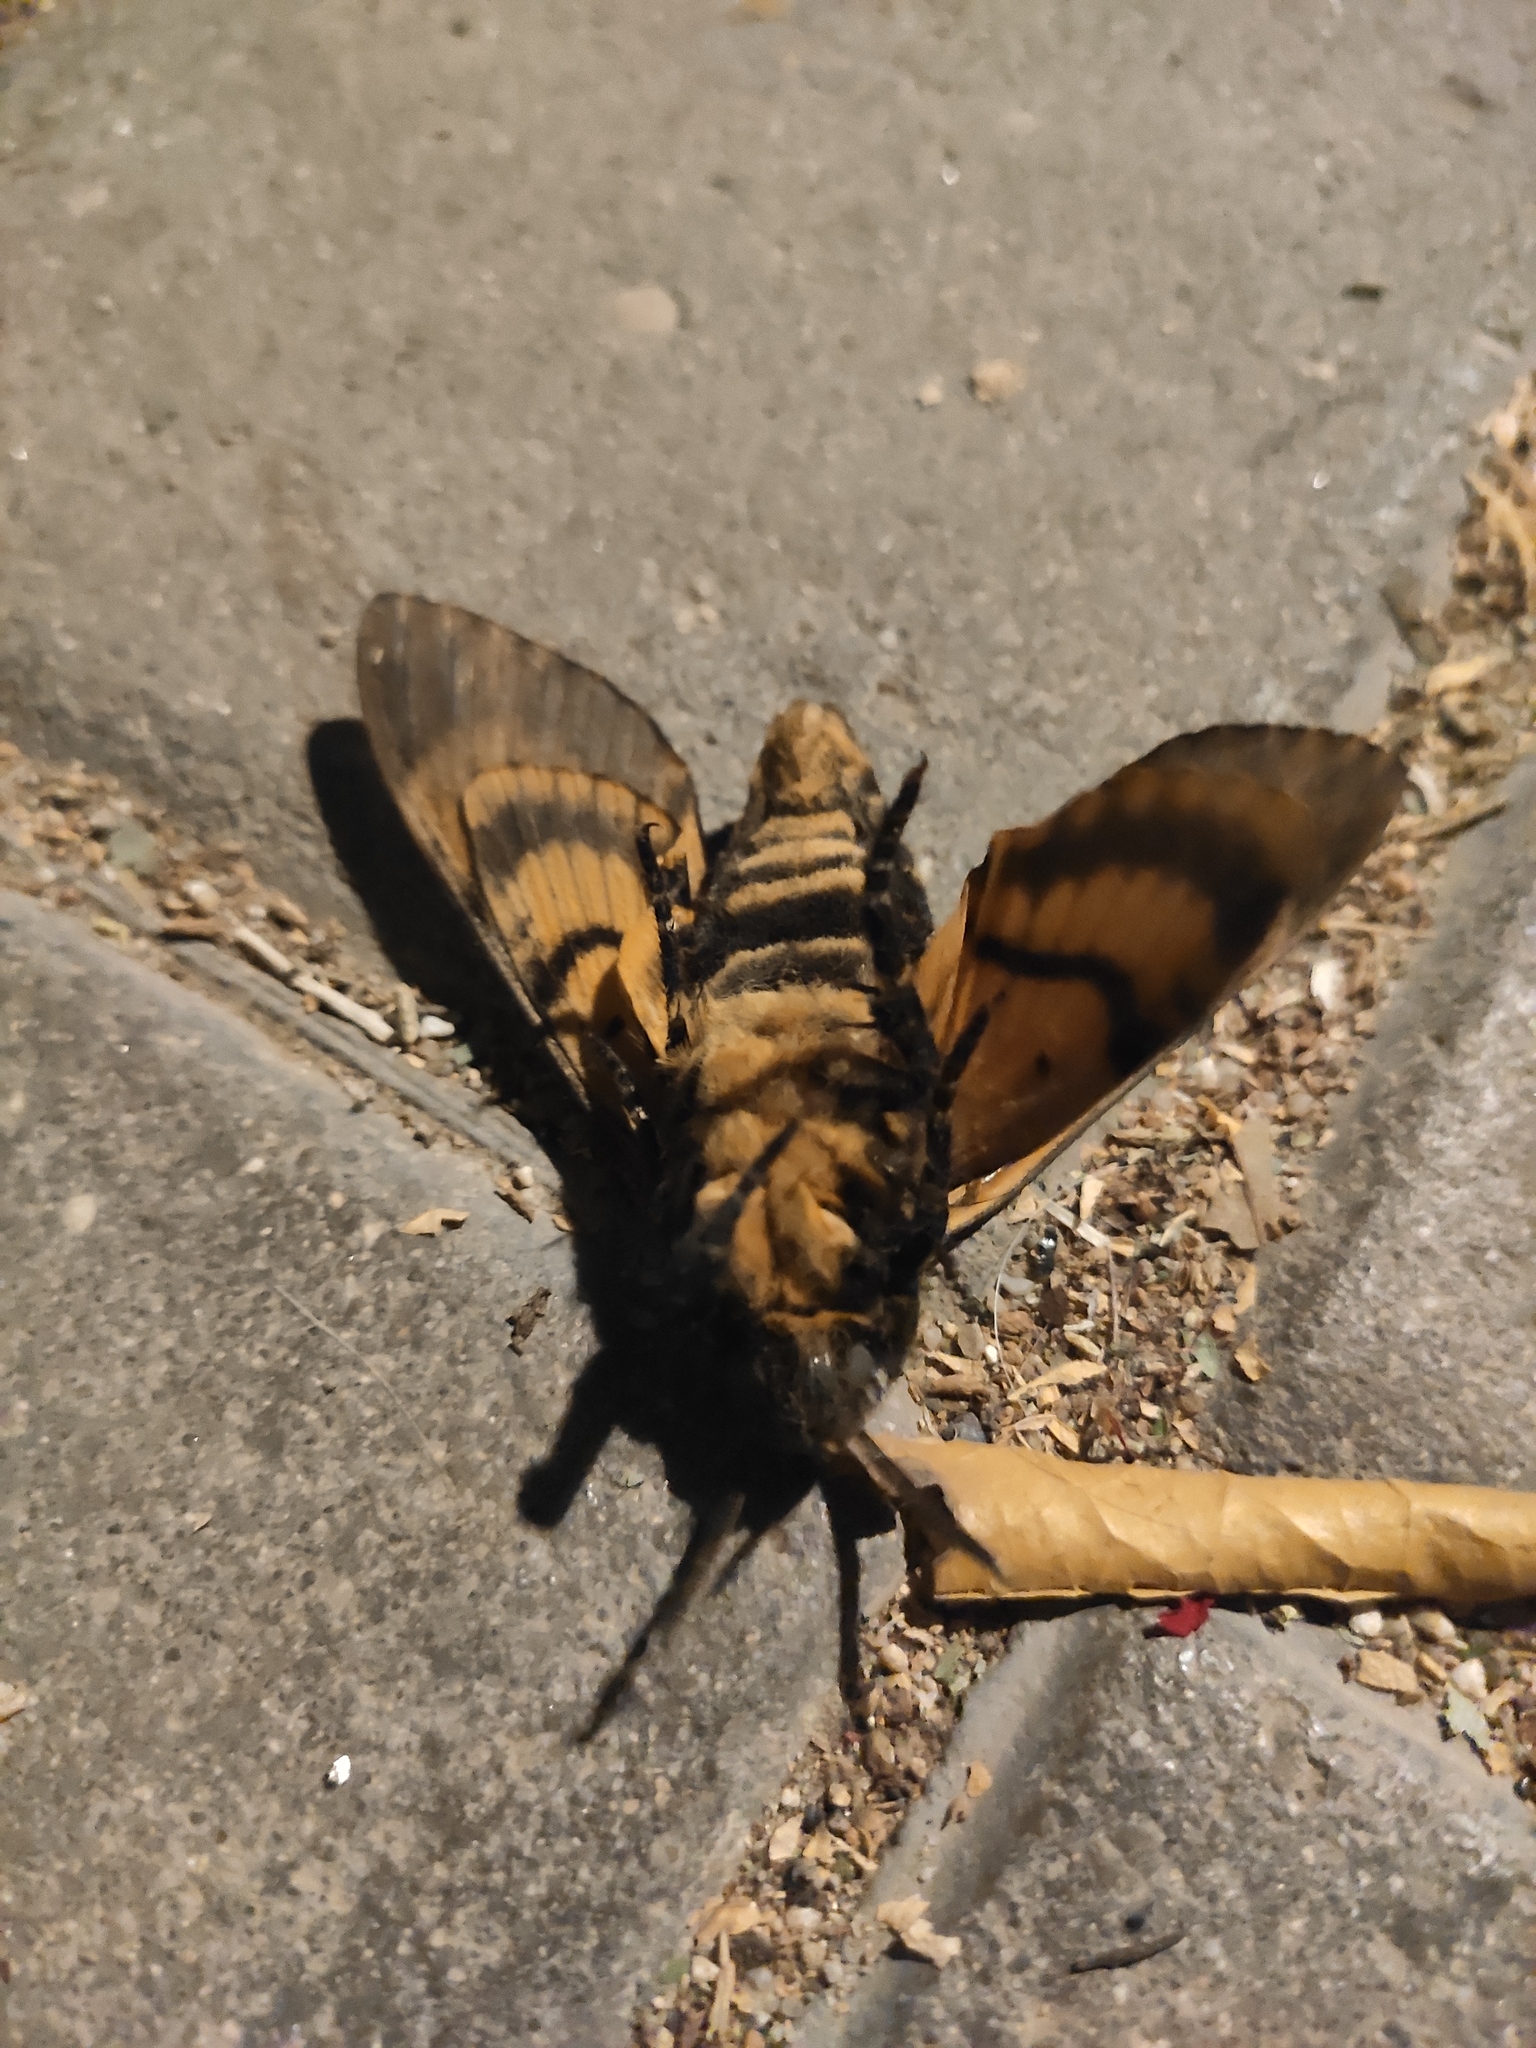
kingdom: Animalia
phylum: Arthropoda
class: Insecta
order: Lepidoptera
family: Sphingidae
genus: Acherontia
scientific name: Acherontia atropos
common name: Death's-head hawk moth
